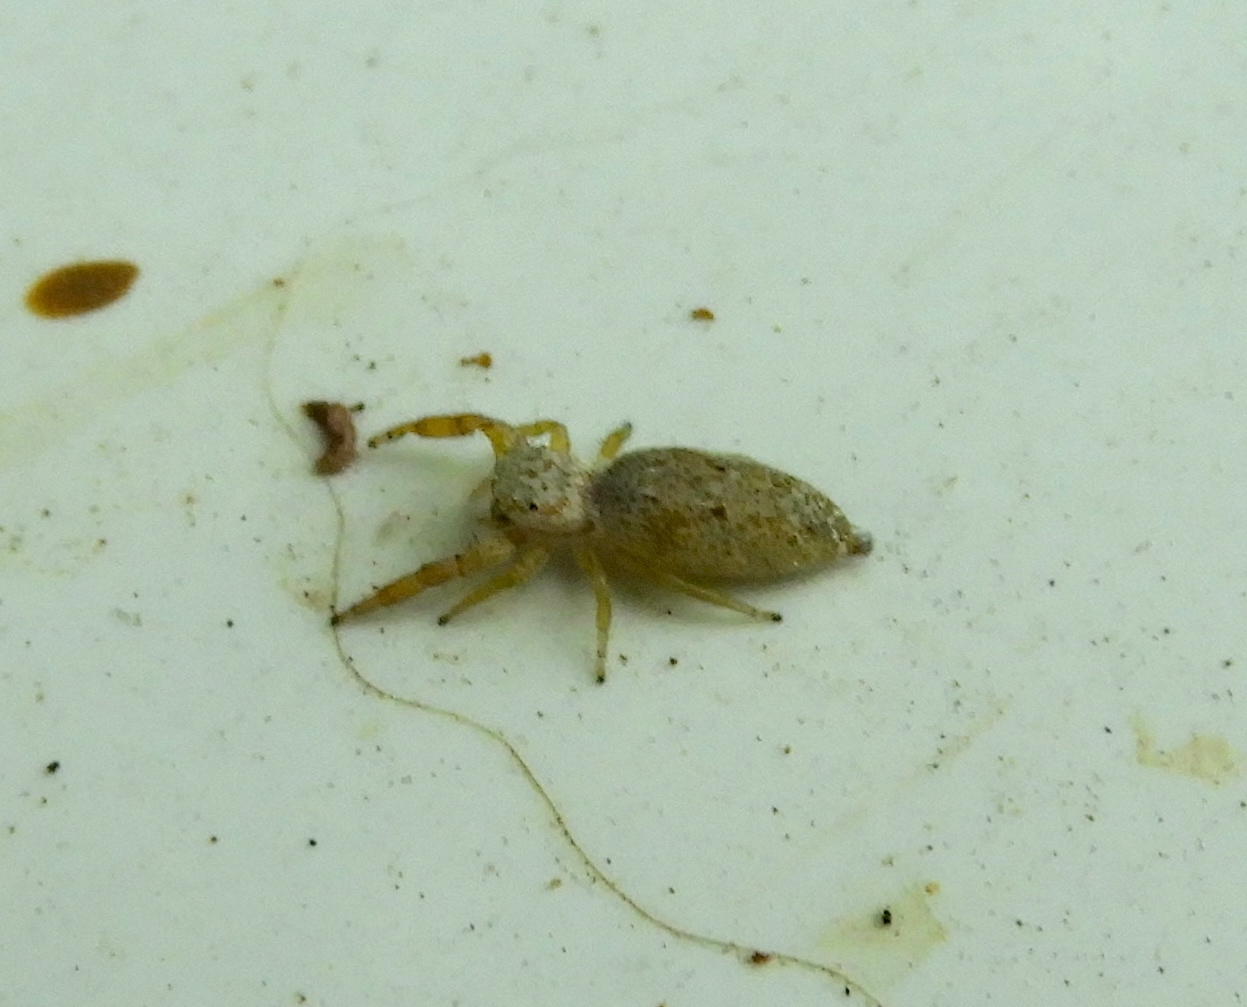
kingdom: Animalia
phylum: Arthropoda
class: Arachnida
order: Araneae
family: Salticidae
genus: Hentzia
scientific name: Hentzia
